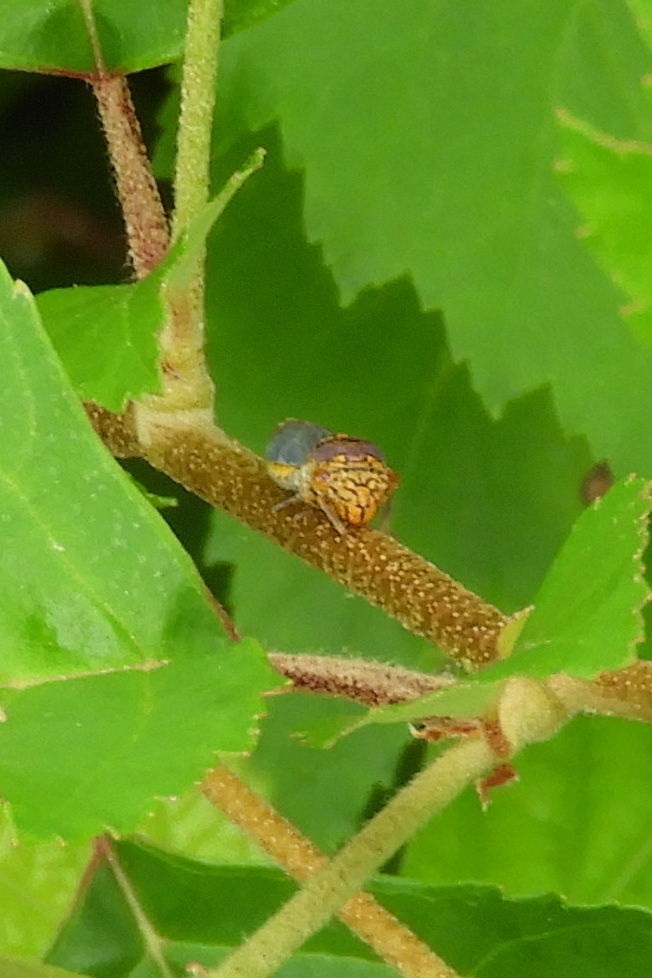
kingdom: Animalia
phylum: Arthropoda
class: Insecta
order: Hemiptera
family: Cicadellidae
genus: Oncometopia
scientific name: Oncometopia orbona
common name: Broad-headed sharpshooter
